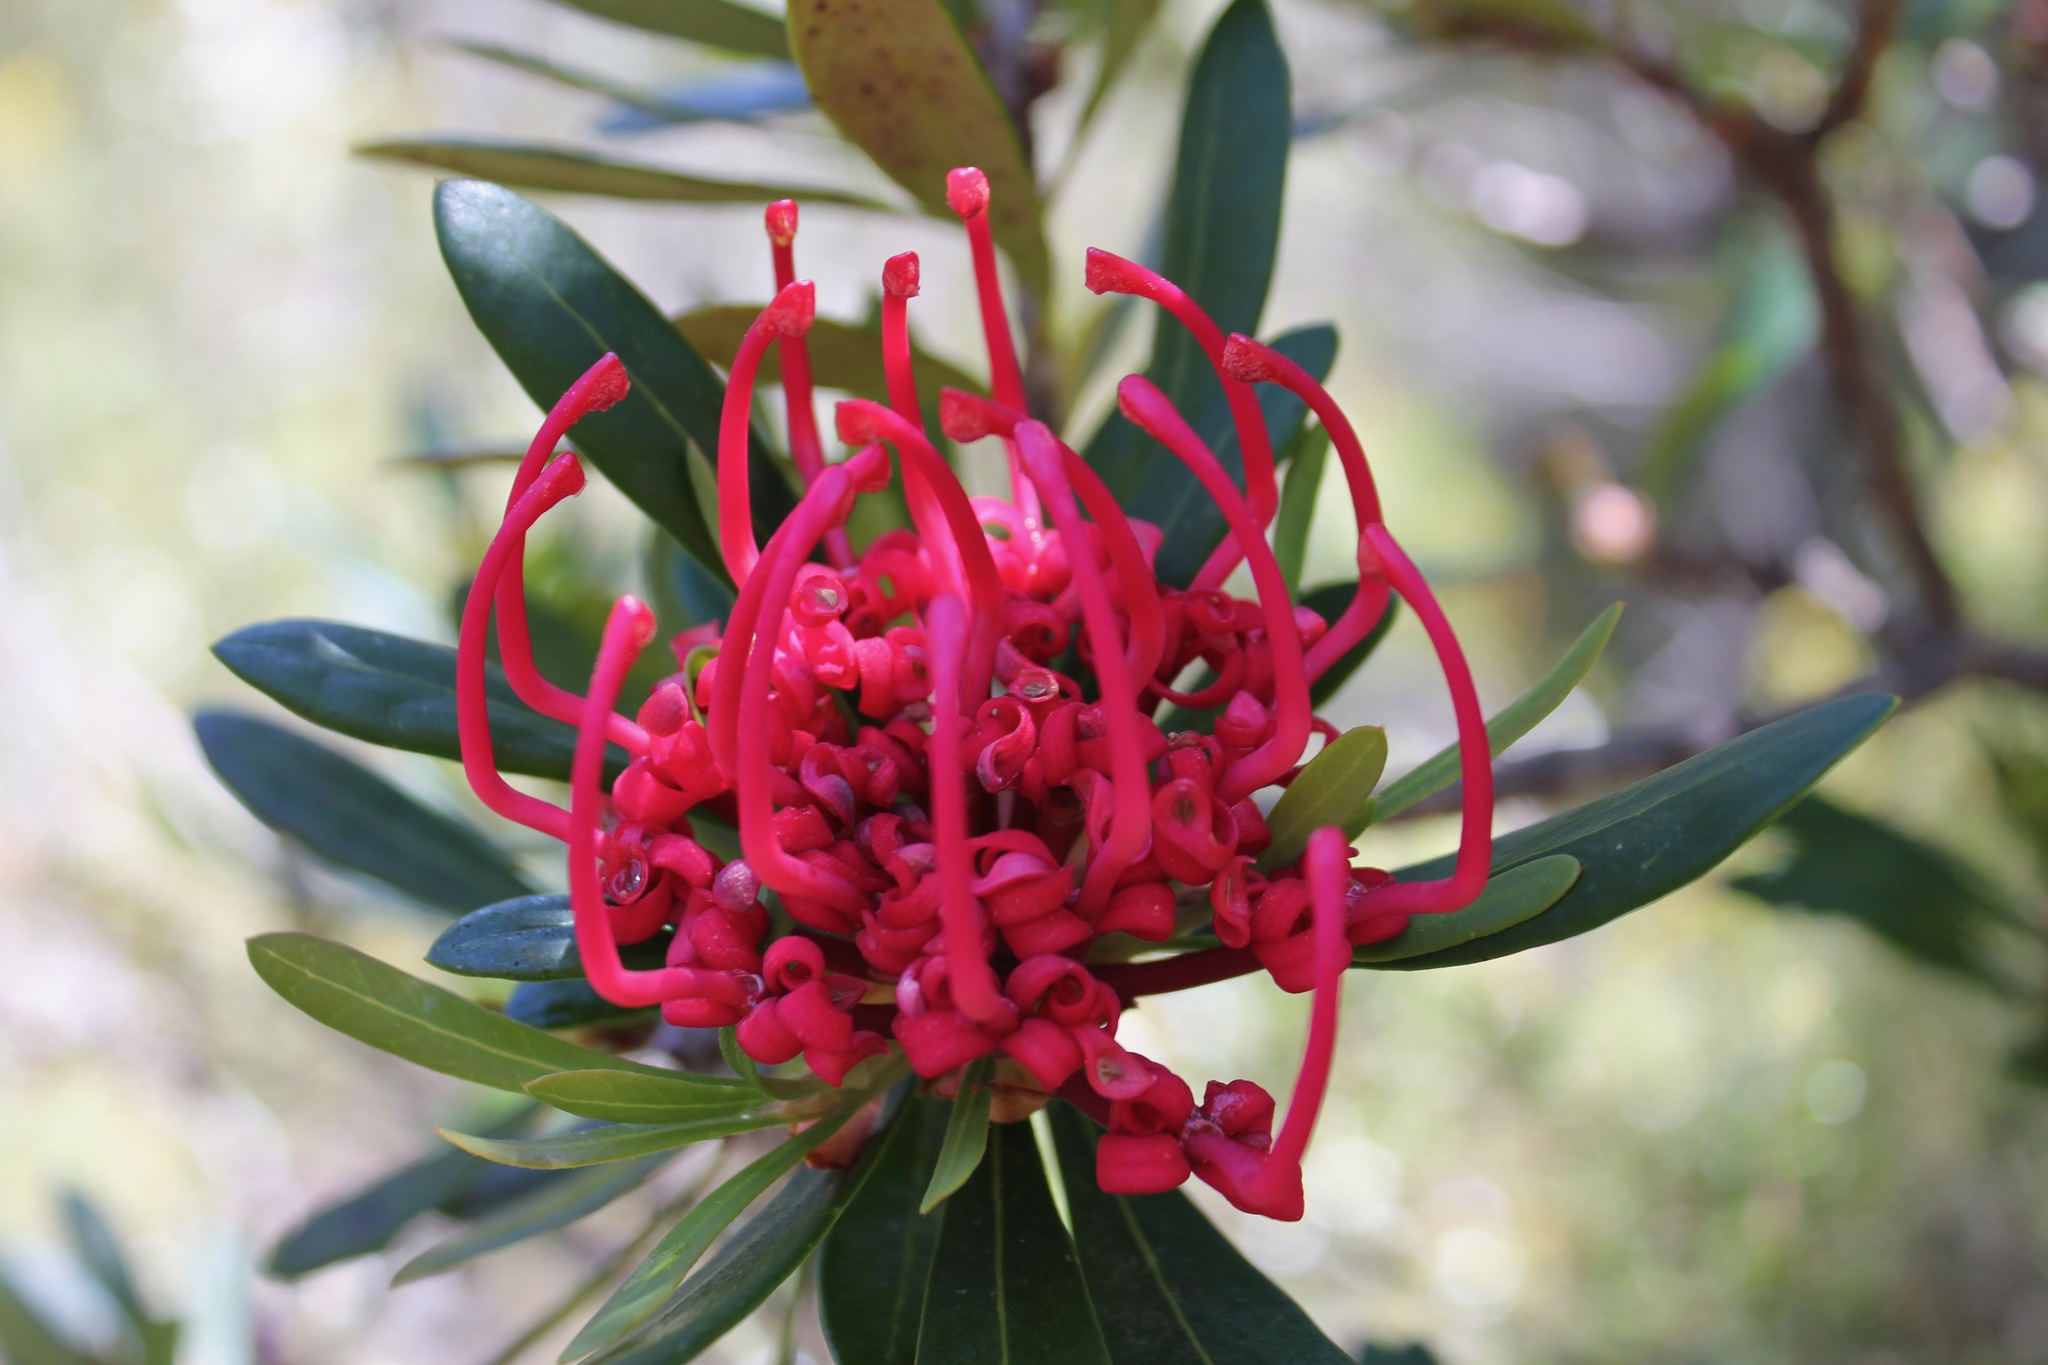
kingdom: Plantae
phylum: Tracheophyta
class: Magnoliopsida
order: Proteales
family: Proteaceae
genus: Telopea
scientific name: Telopea truncata
